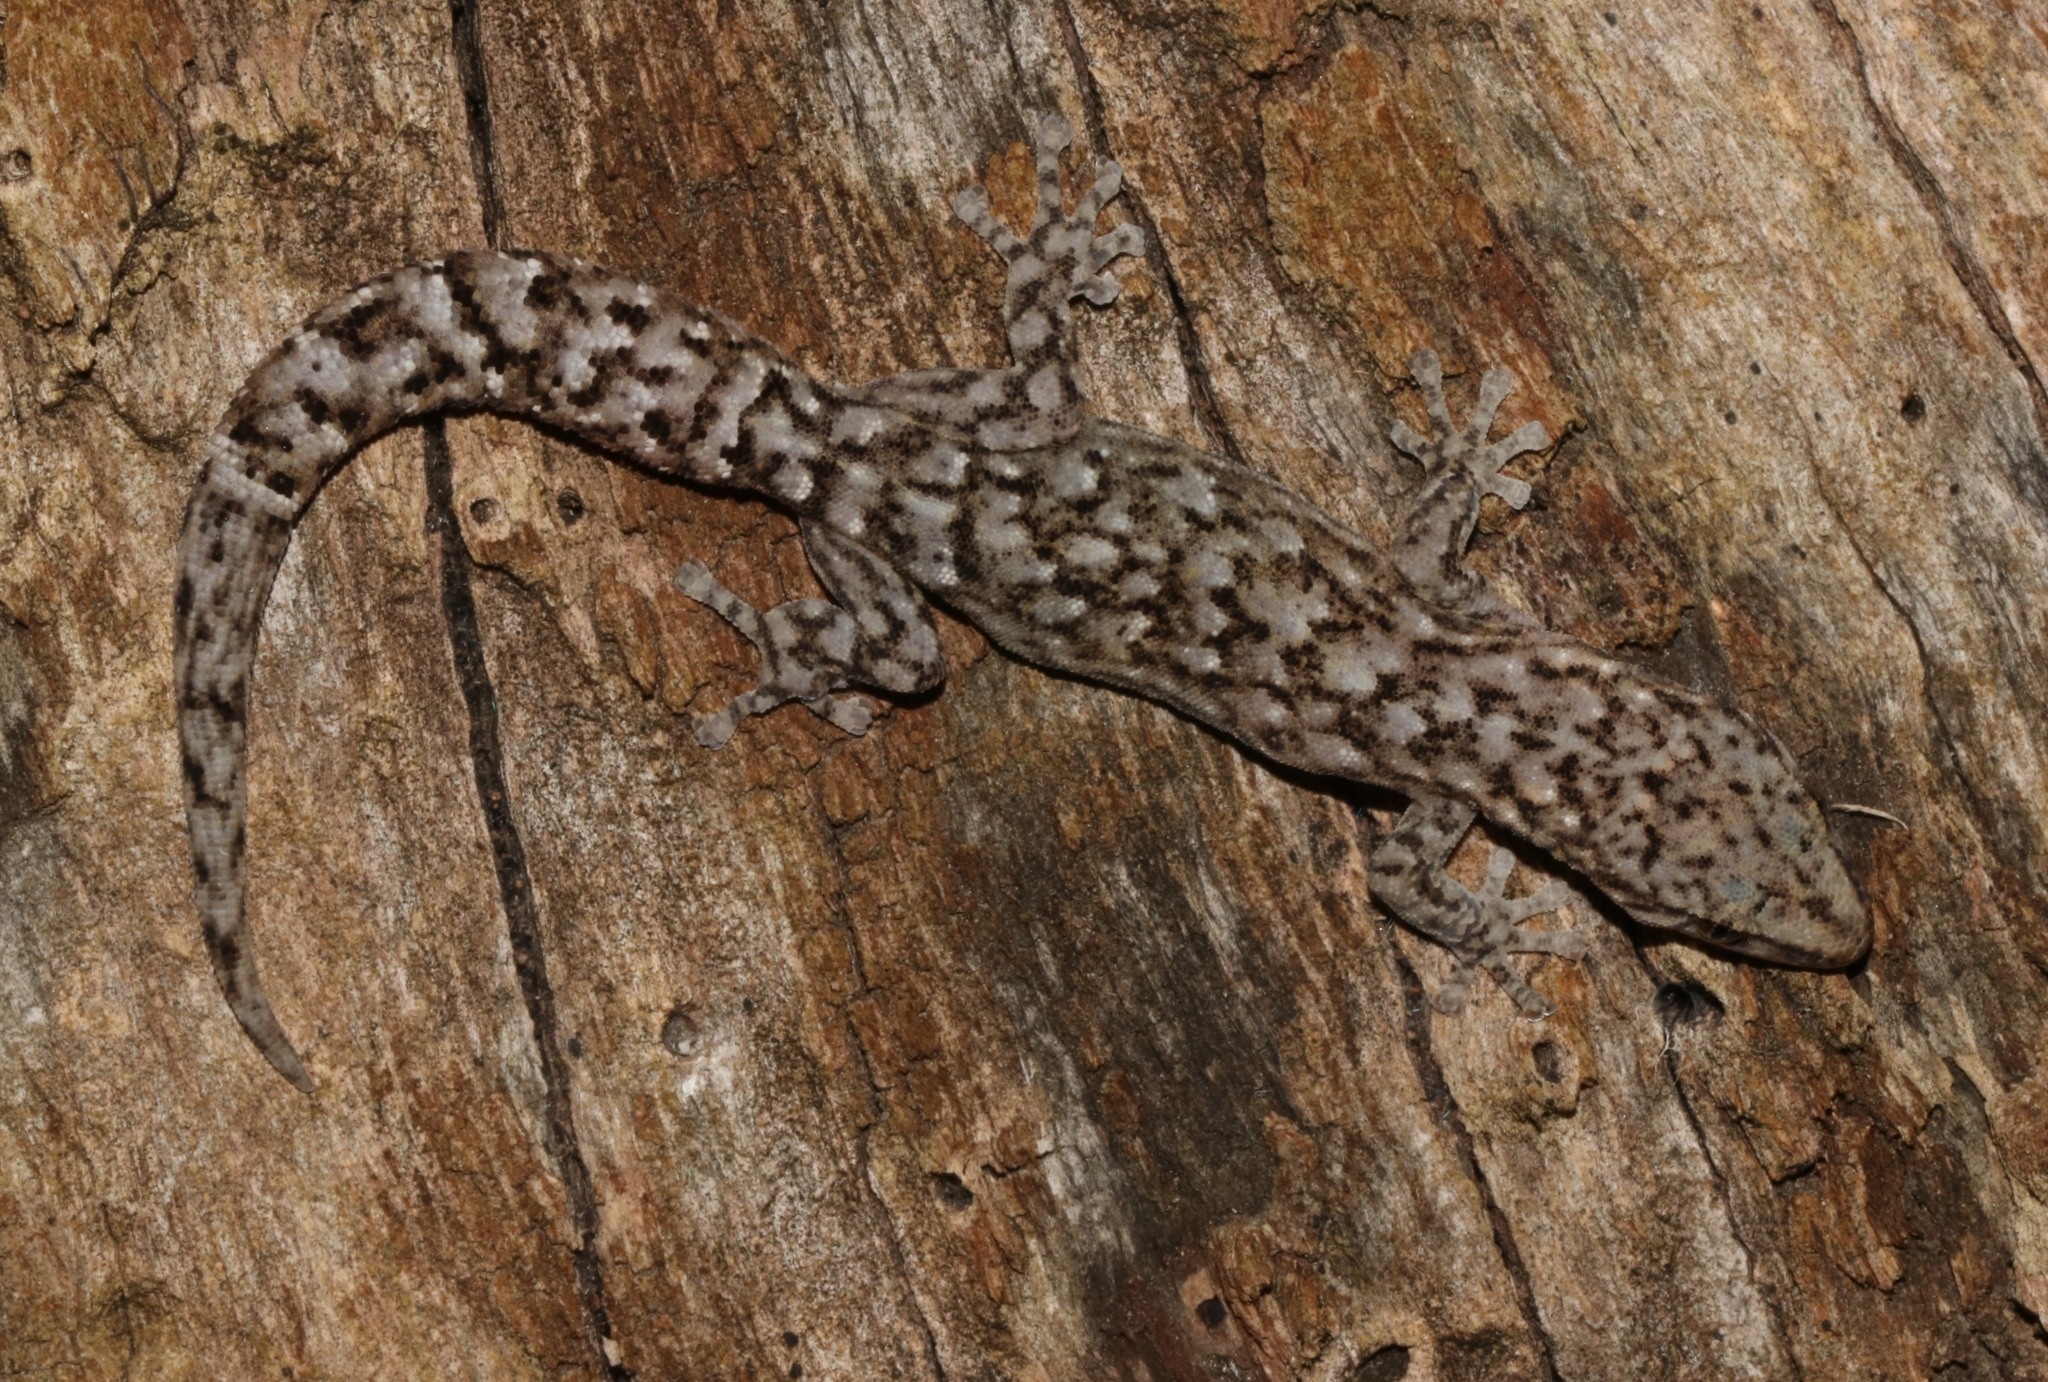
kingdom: Animalia
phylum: Chordata
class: Squamata
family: Gekkonidae
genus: Afrogecko
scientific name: Afrogecko porphyreus
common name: Marbled leaf-toed gecko
